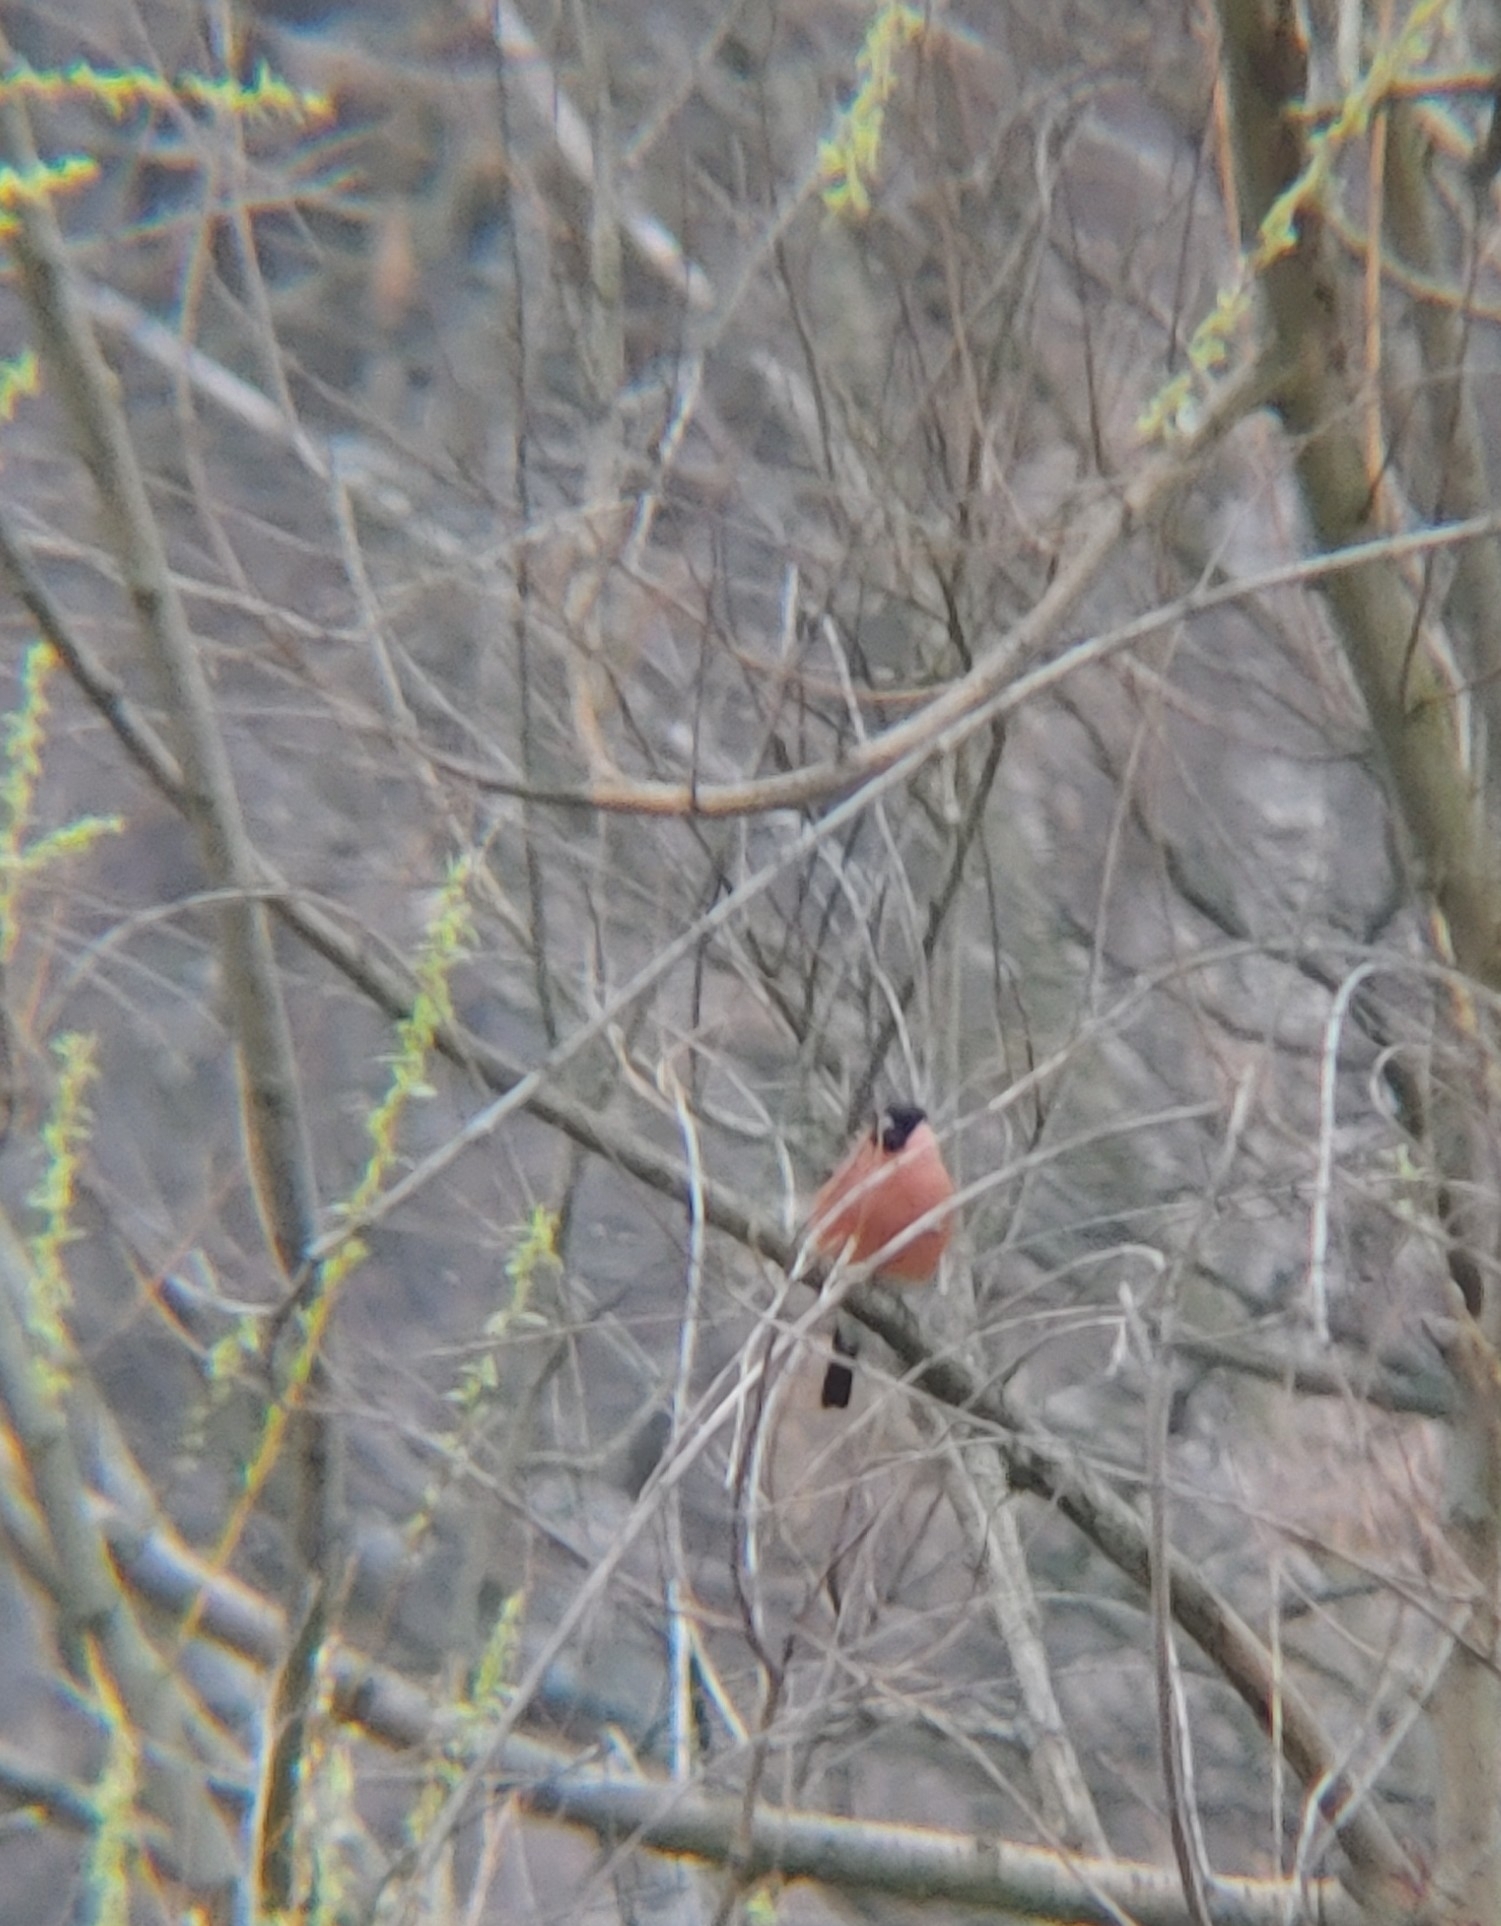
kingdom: Animalia
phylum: Chordata
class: Aves
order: Passeriformes
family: Fringillidae
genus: Pyrrhula
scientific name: Pyrrhula pyrrhula
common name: Eurasian bullfinch
